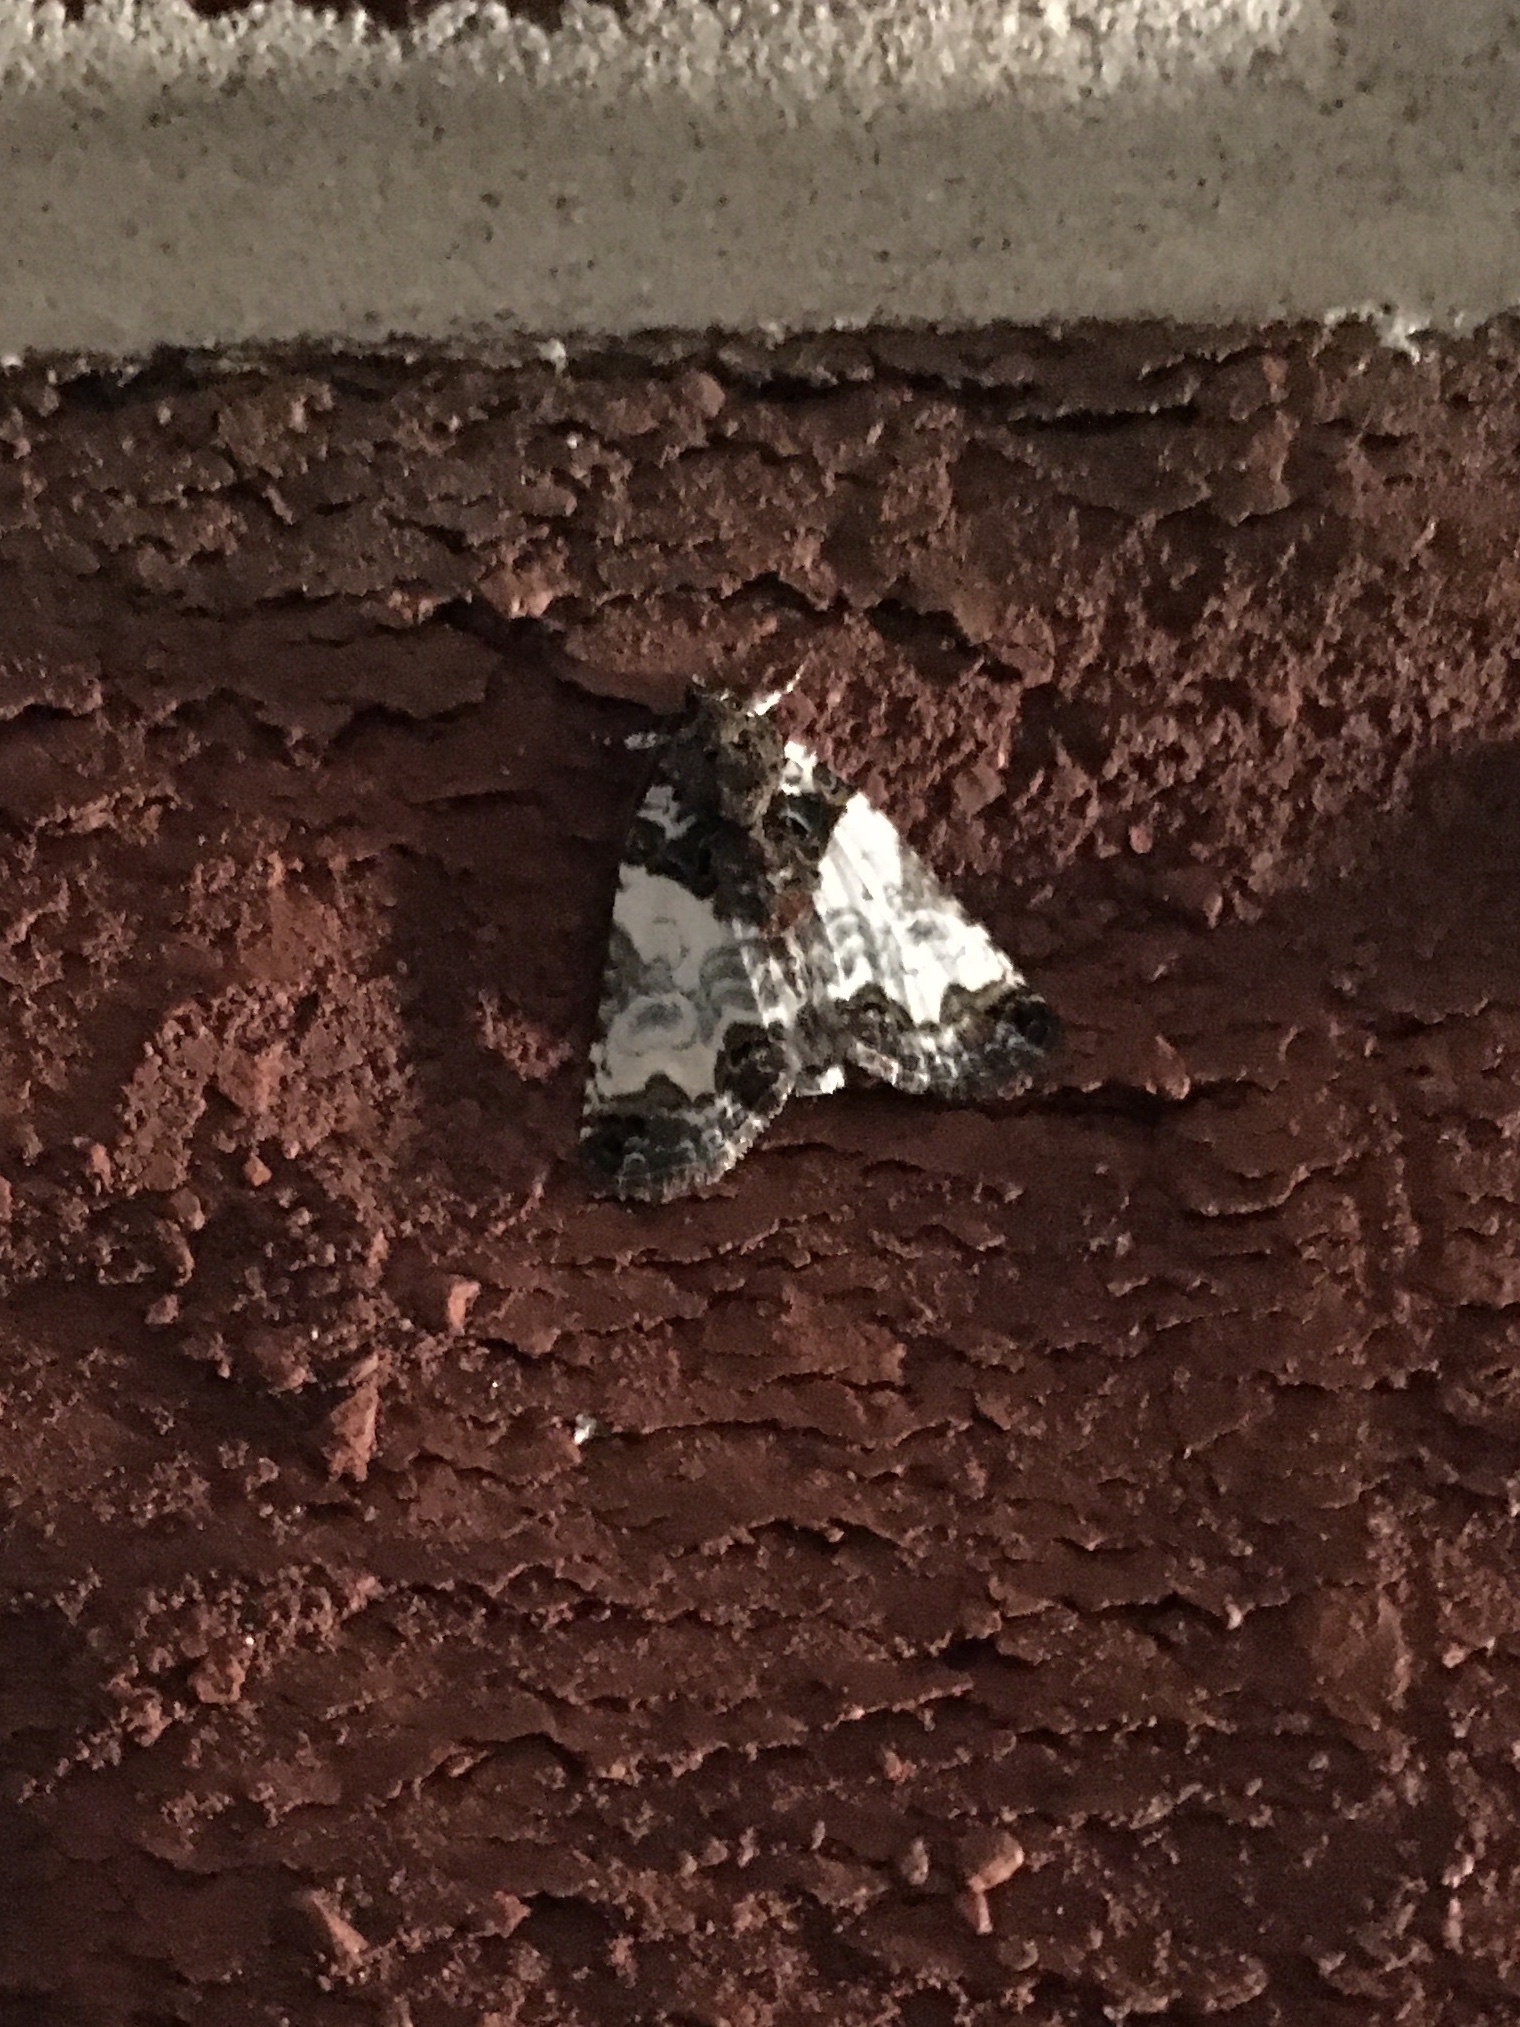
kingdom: Animalia
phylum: Arthropoda
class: Insecta
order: Lepidoptera
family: Noctuidae
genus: Cerma
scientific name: Cerma cerintha
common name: Tufted bird-dropping moth
